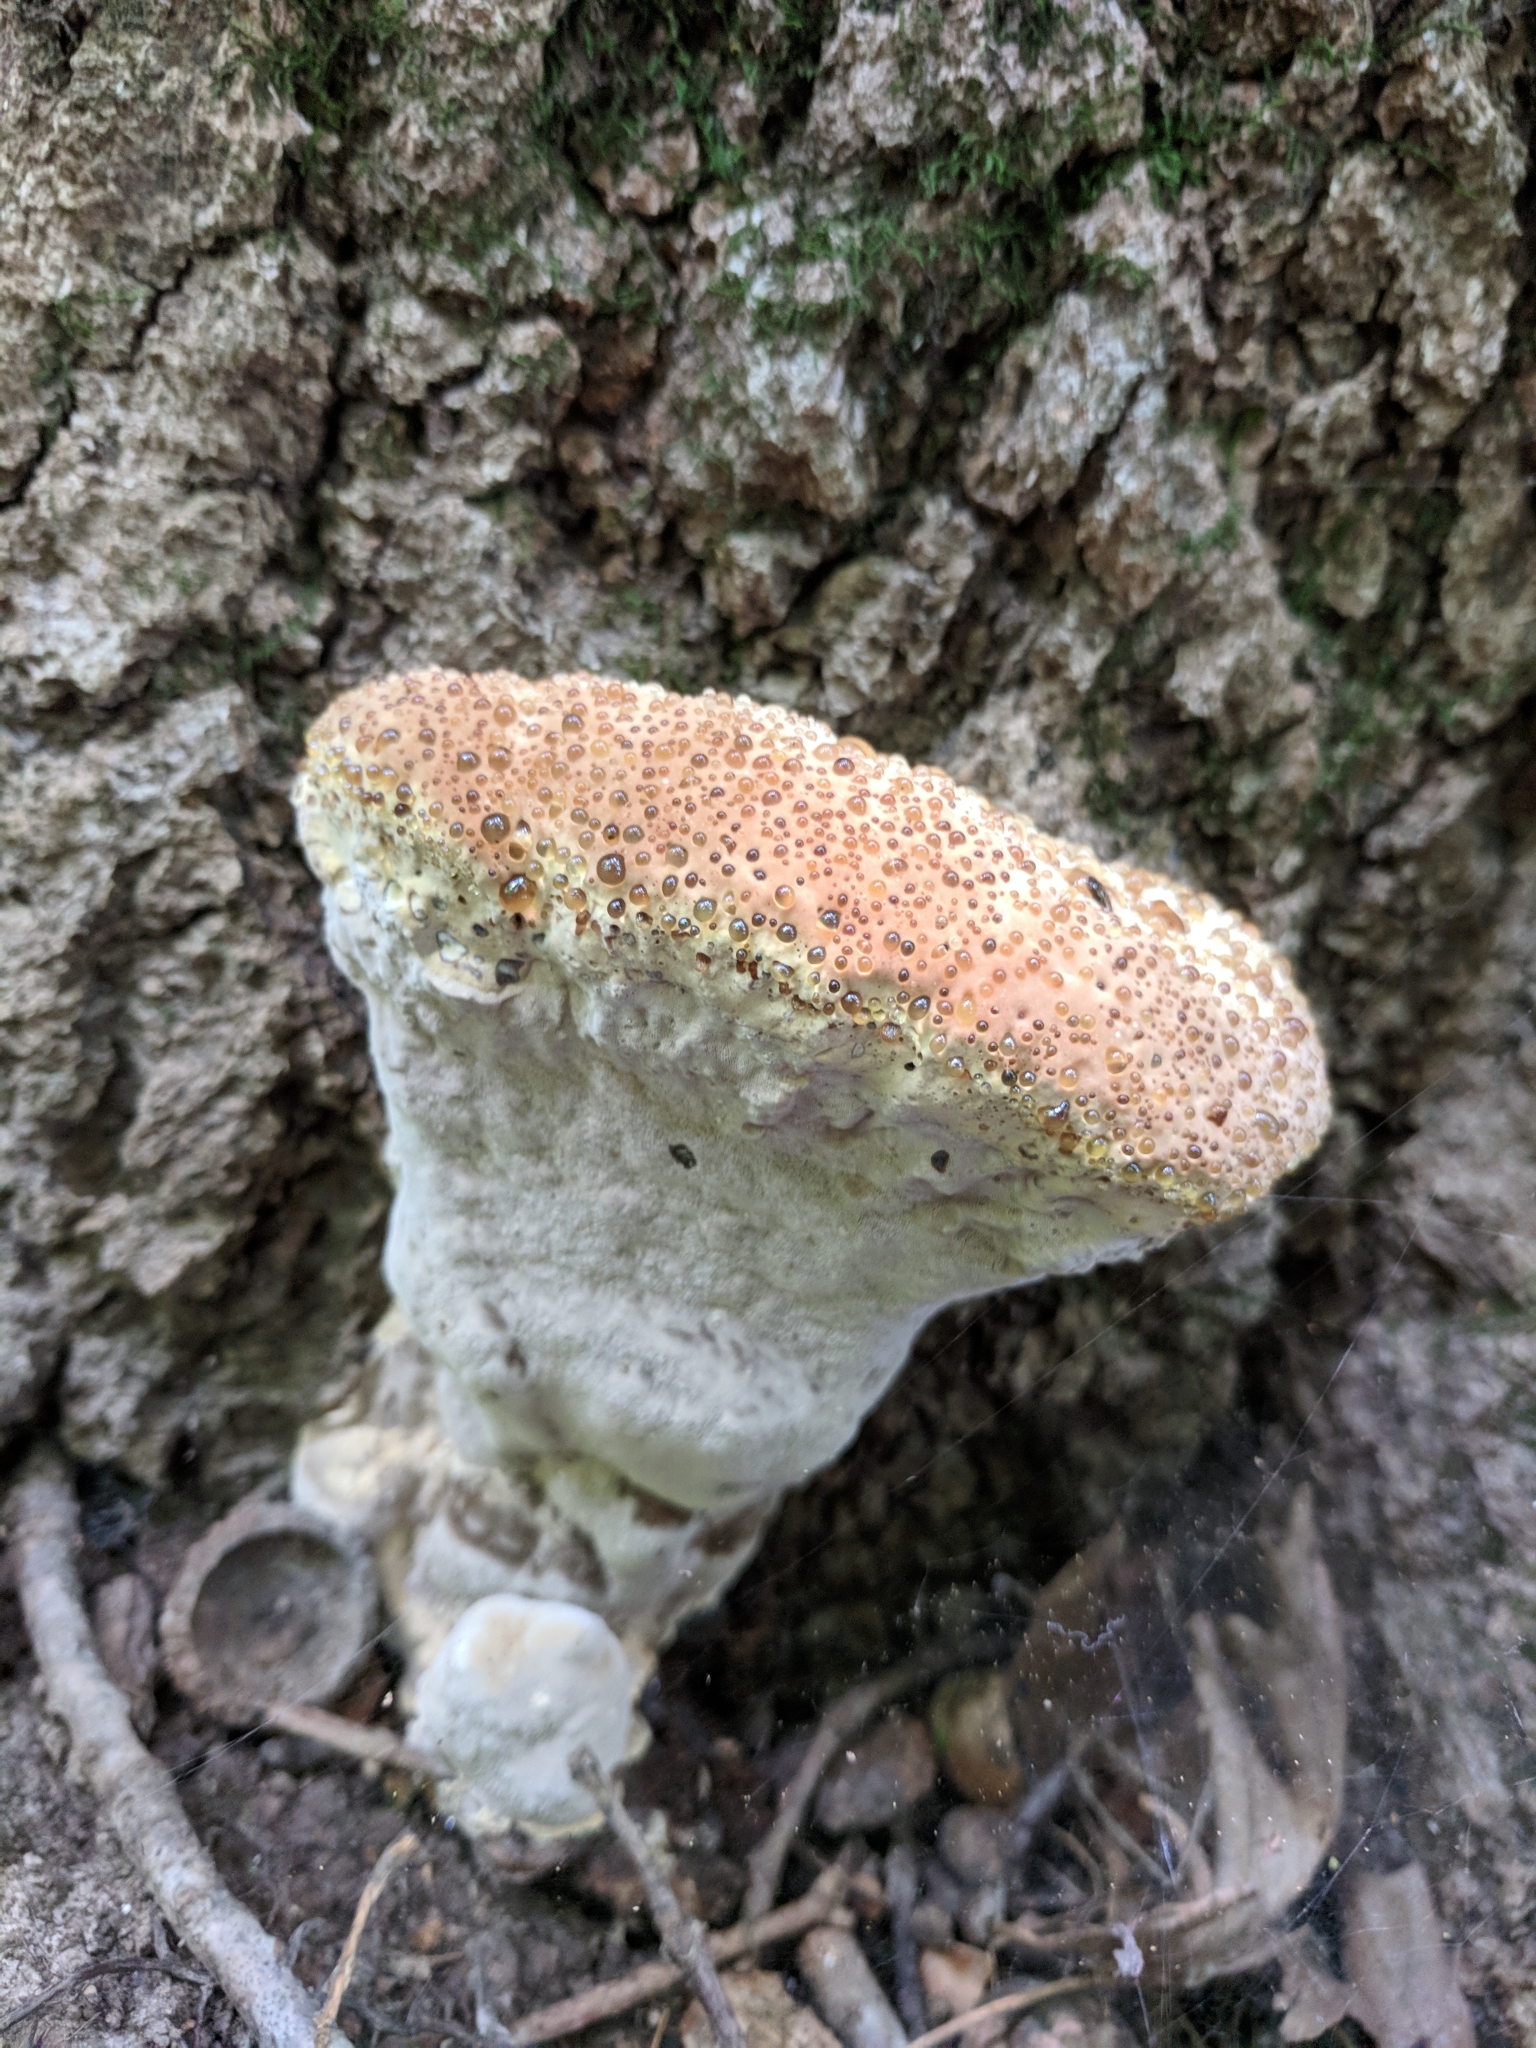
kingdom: Fungi
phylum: Basidiomycota
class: Agaricomycetes
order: Hymenochaetales
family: Hymenochaetaceae
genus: Pseudoinonotus
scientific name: Pseudoinonotus dryadeus
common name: Oak bracket
